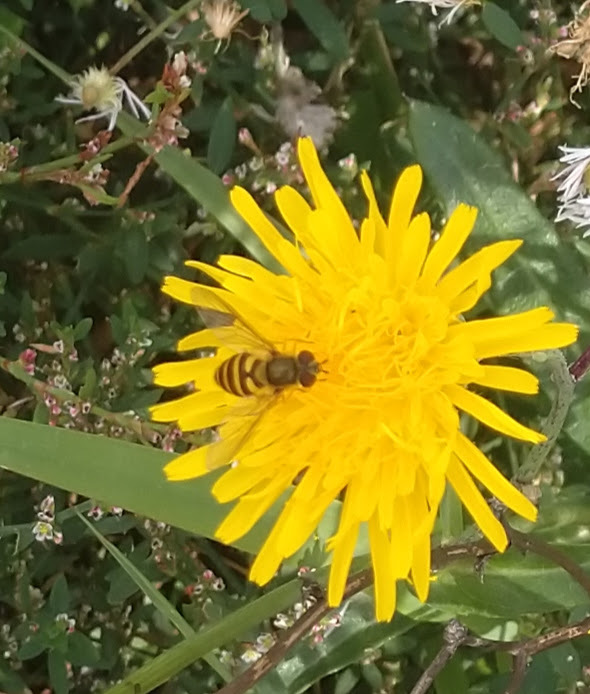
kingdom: Animalia
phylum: Arthropoda
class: Insecta
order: Diptera
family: Syrphidae
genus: Syrphus
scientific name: Syrphus
